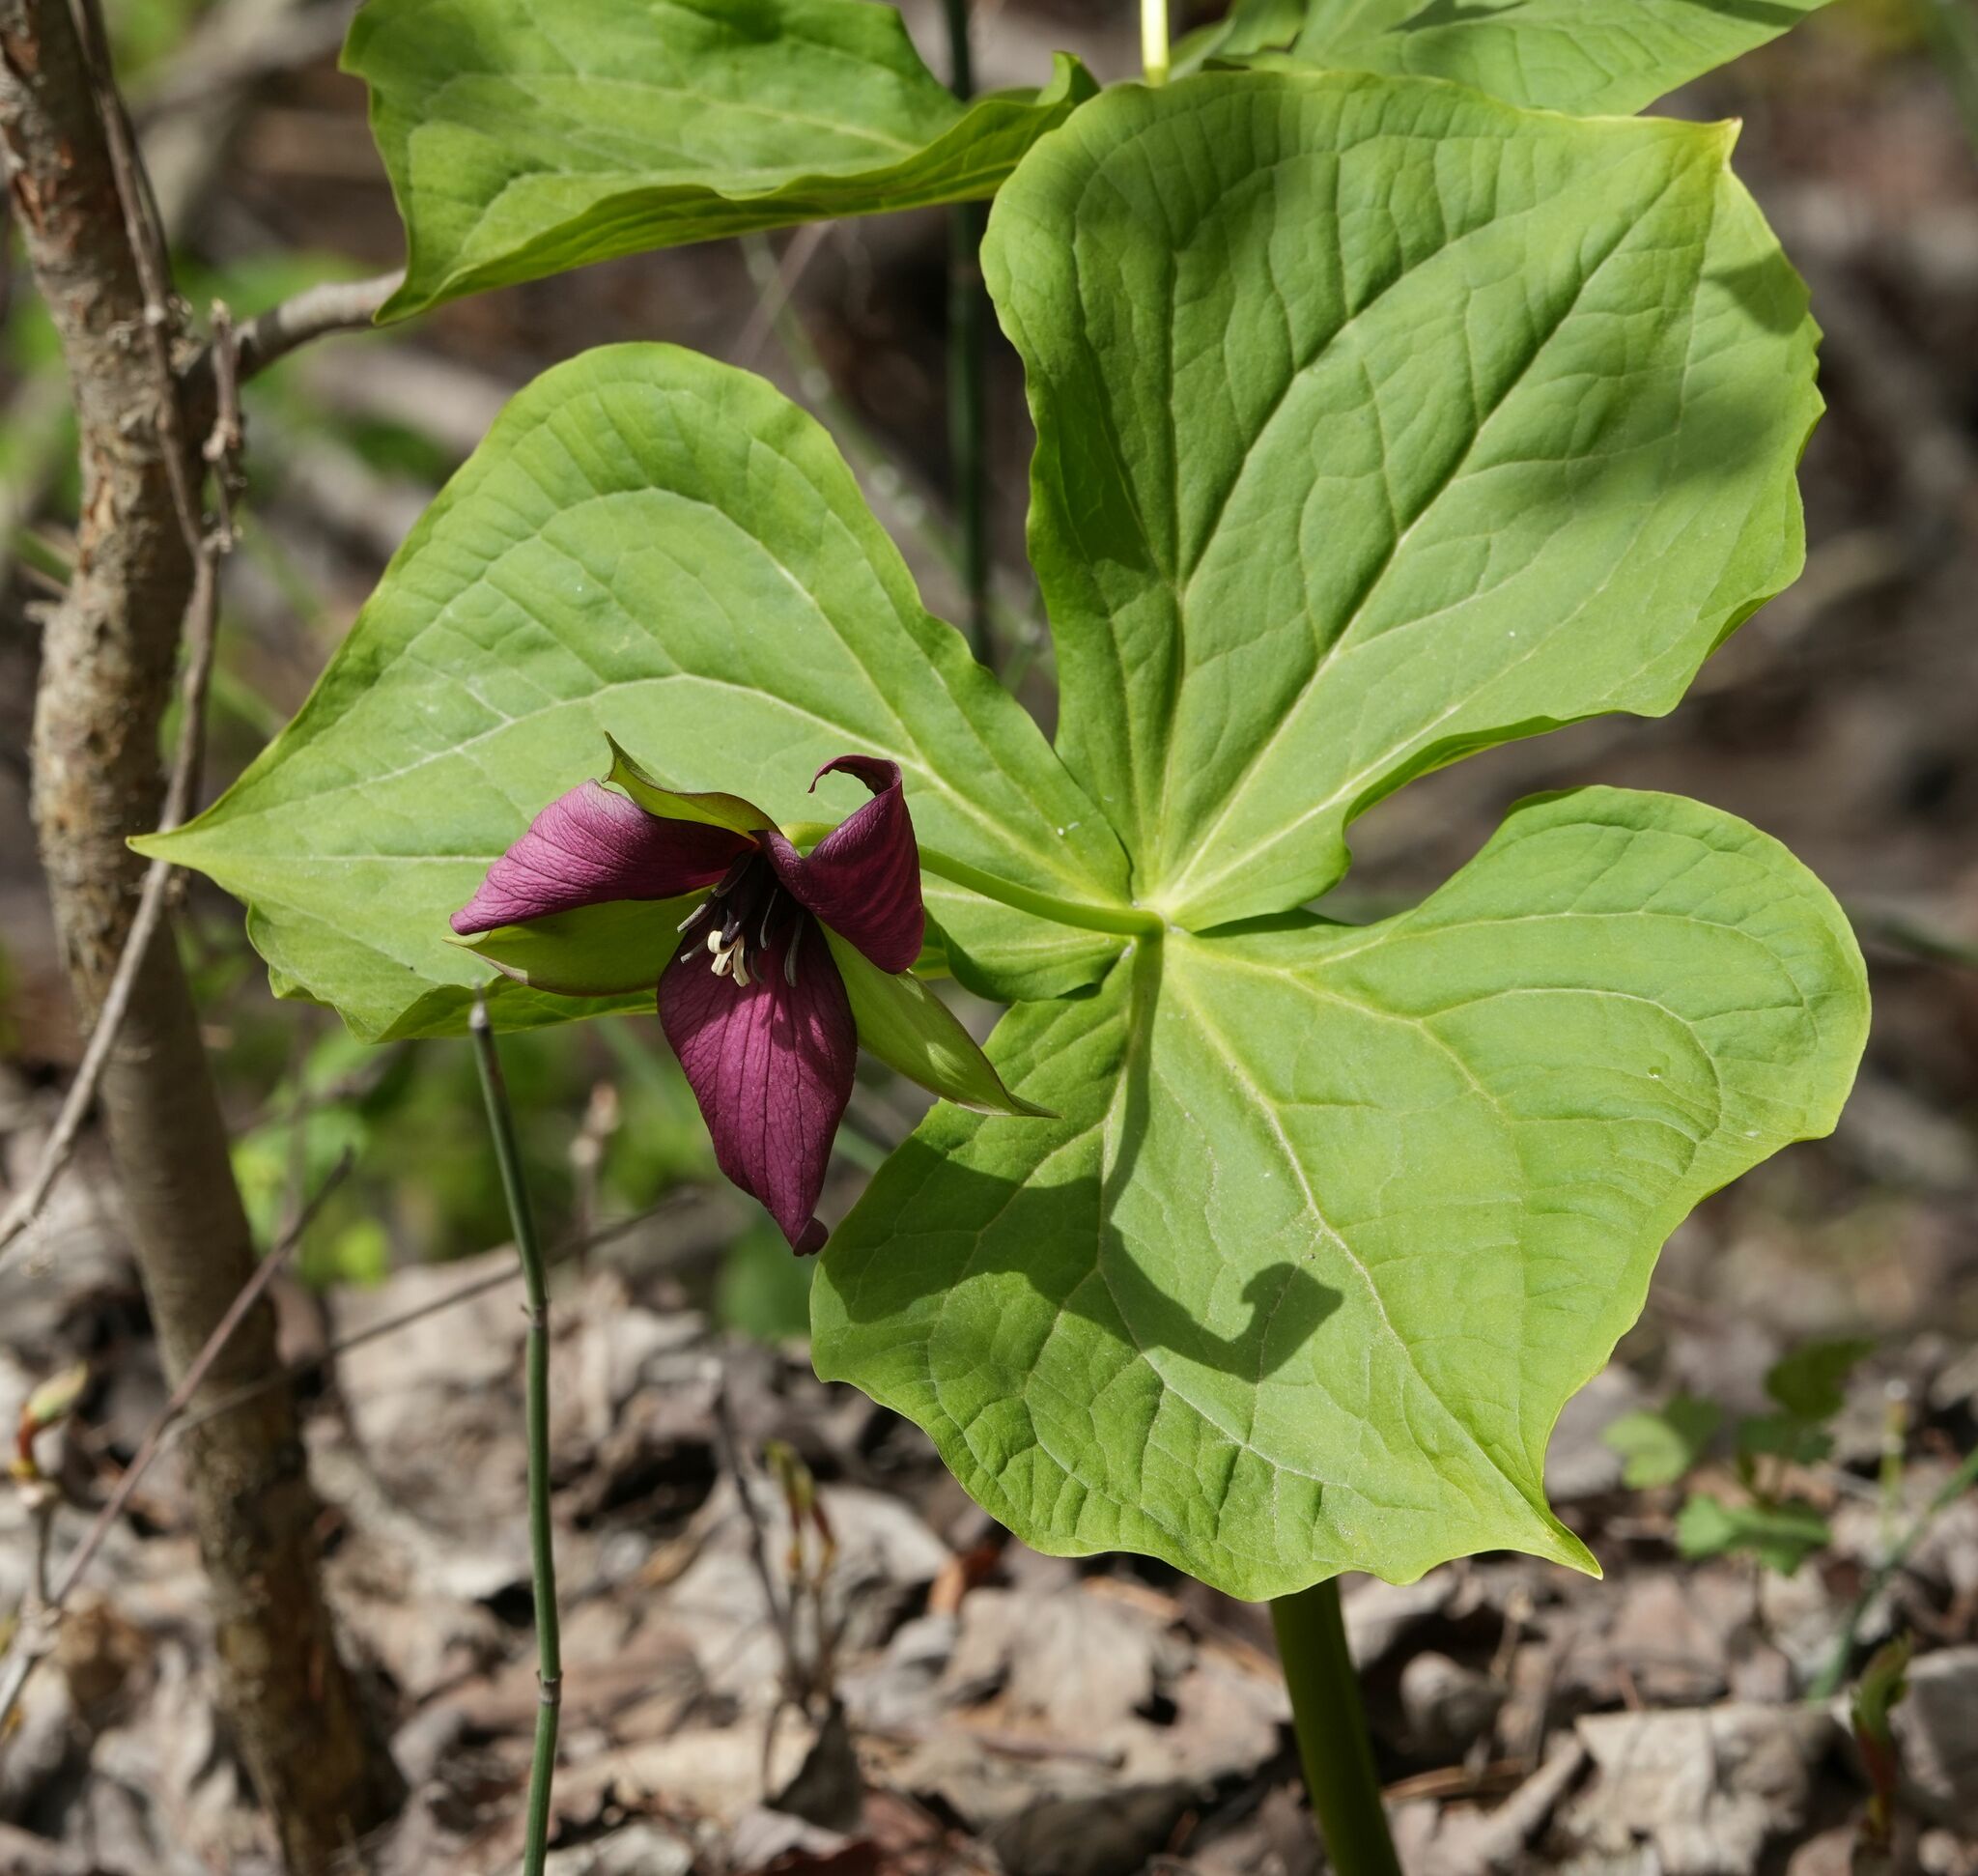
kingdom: Plantae
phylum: Tracheophyta
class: Liliopsida
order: Liliales
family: Melanthiaceae
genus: Trillium
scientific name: Trillium erectum
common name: Purple trillium
